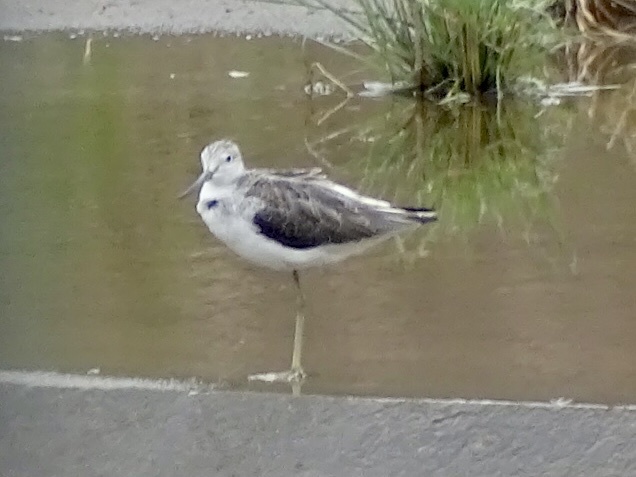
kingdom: Animalia
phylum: Chordata
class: Aves
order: Charadriiformes
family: Scolopacidae
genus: Tringa
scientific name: Tringa nebularia
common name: Common greenshank
